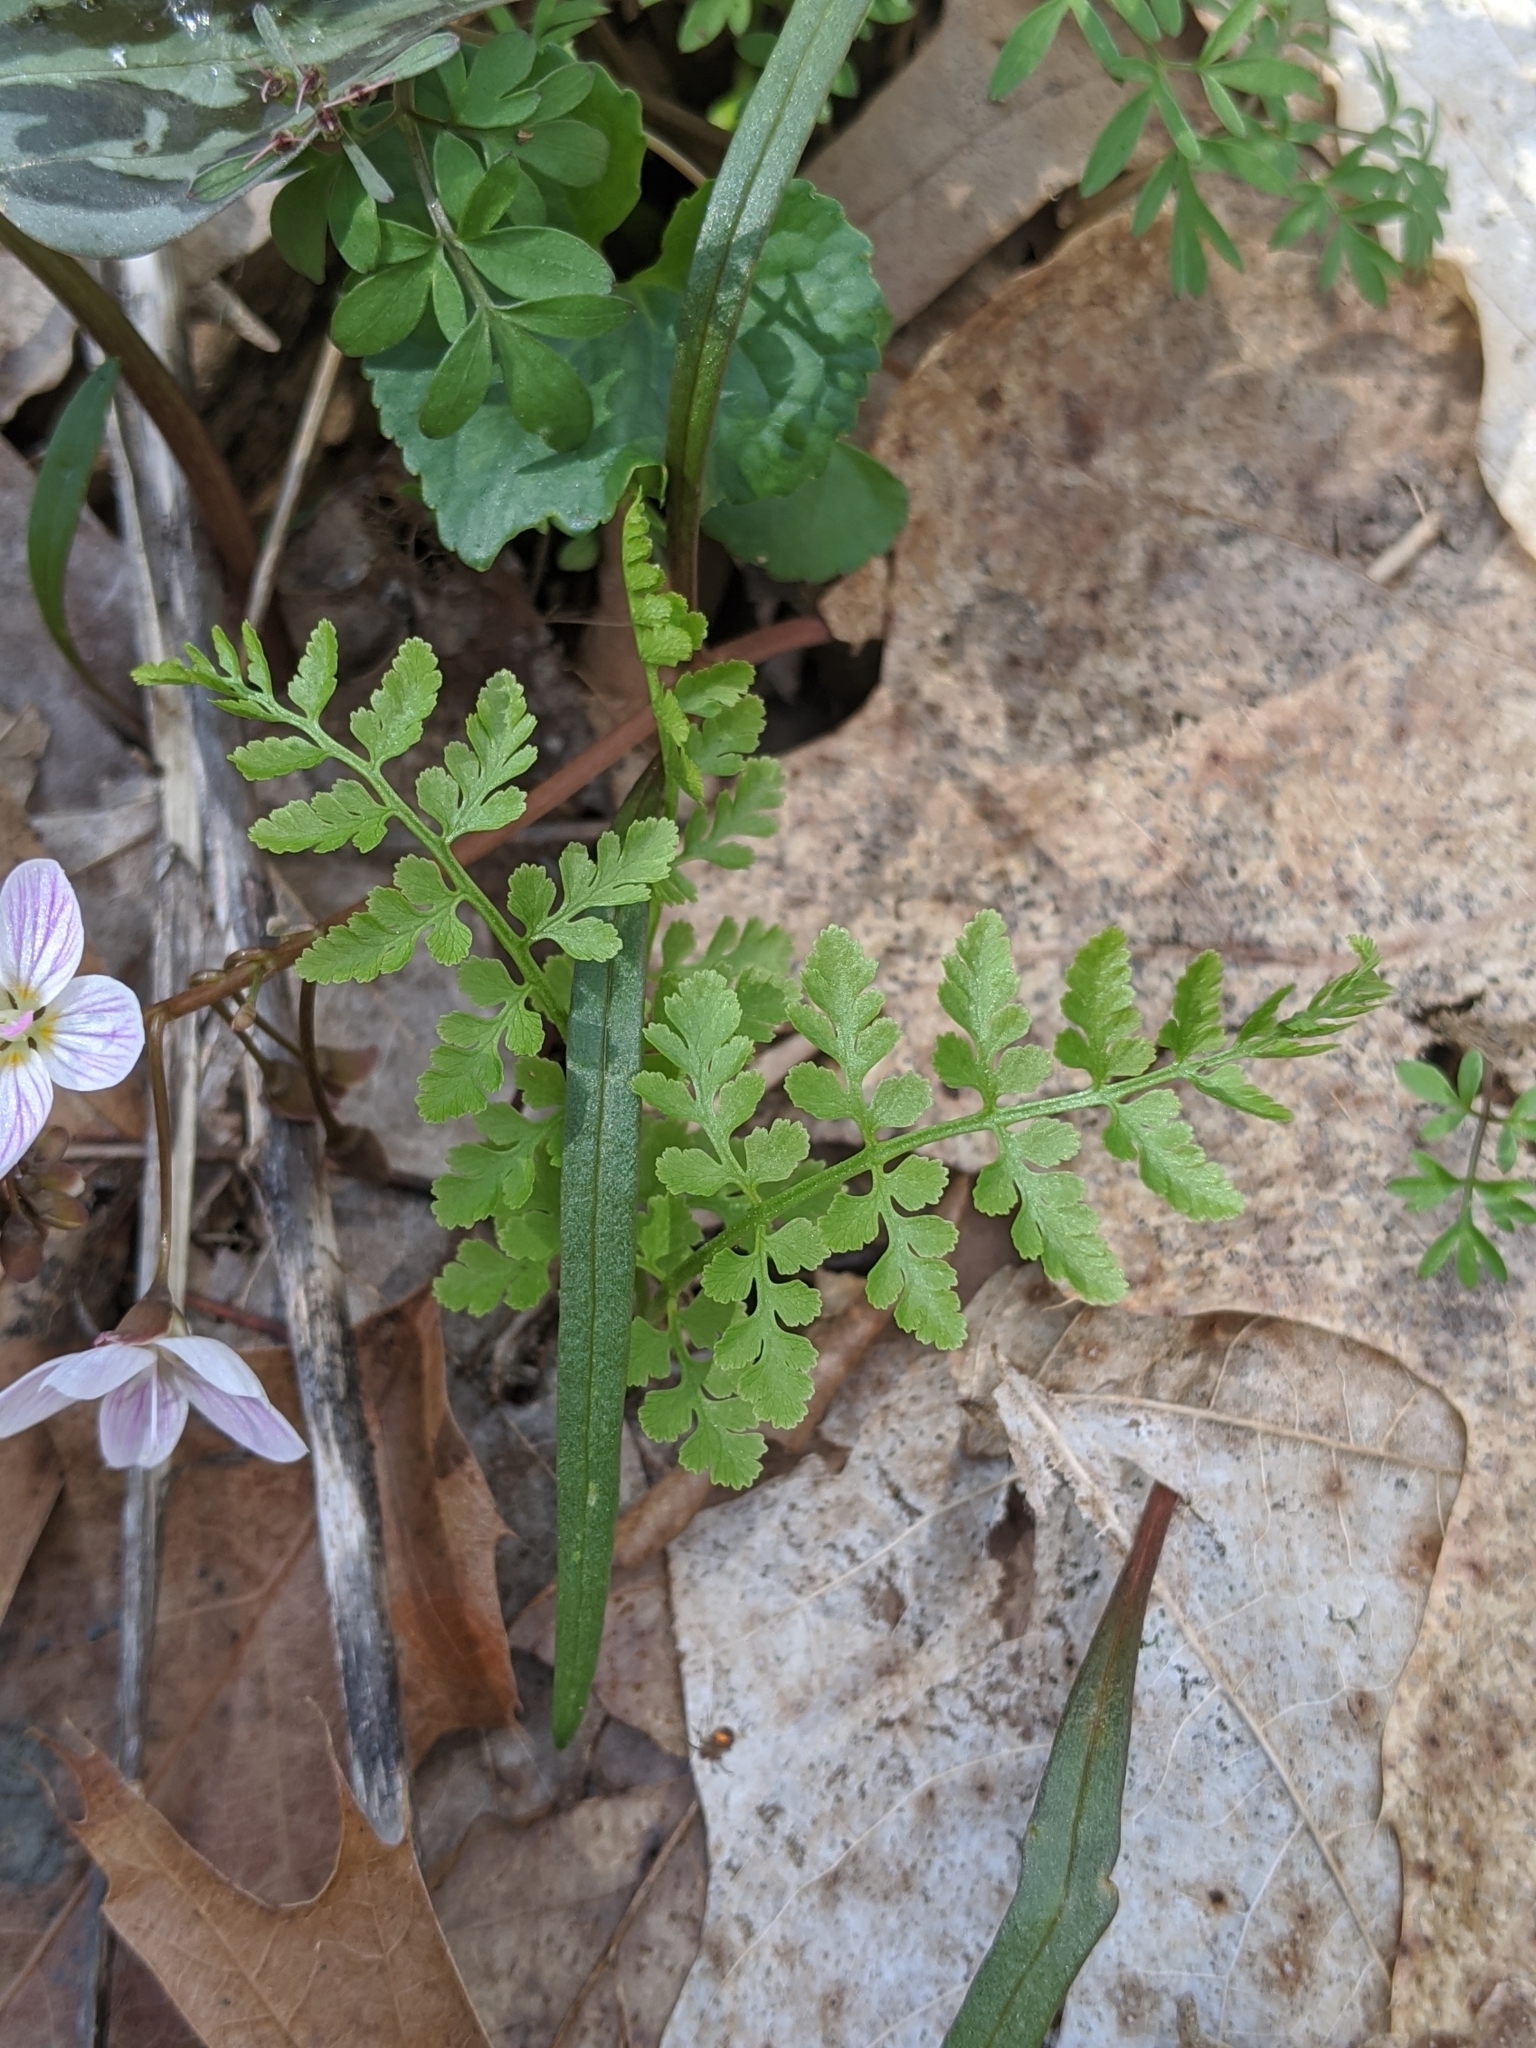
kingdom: Plantae
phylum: Tracheophyta
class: Polypodiopsida
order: Polypodiales
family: Cystopteridaceae
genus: Cystopteris
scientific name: Cystopteris protrusa
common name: Lowland brittle fern
